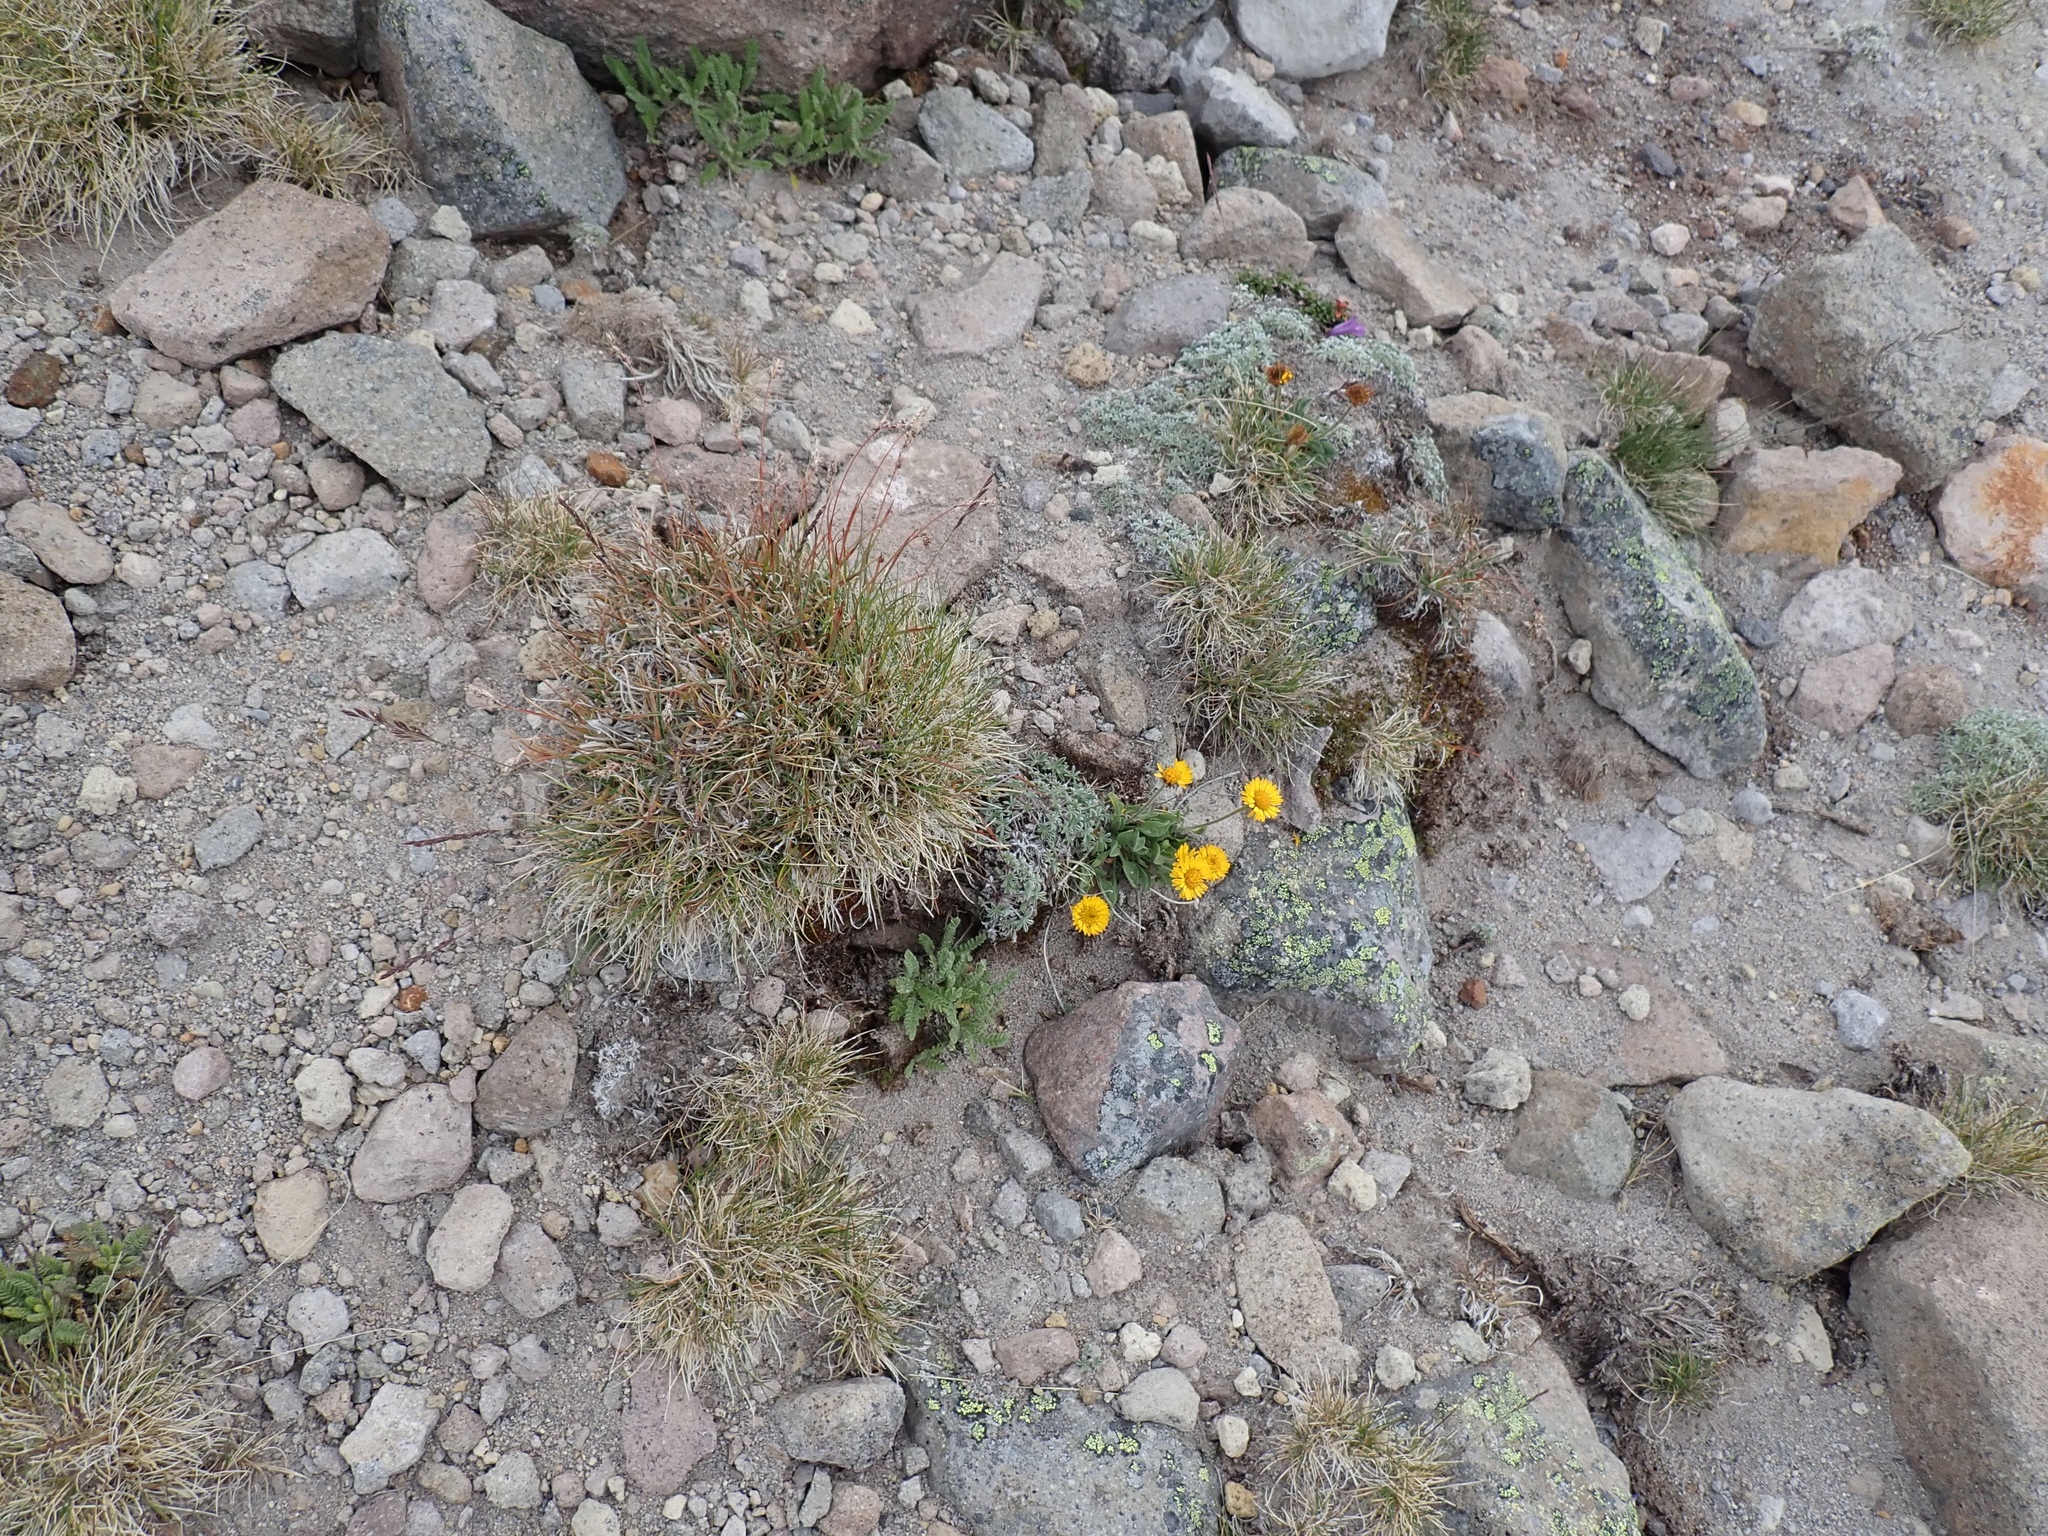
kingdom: Plantae
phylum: Tracheophyta
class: Magnoliopsida
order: Asterales
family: Asteraceae
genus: Erigeron
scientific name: Erigeron aureus
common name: Alpine yellow fleabane
